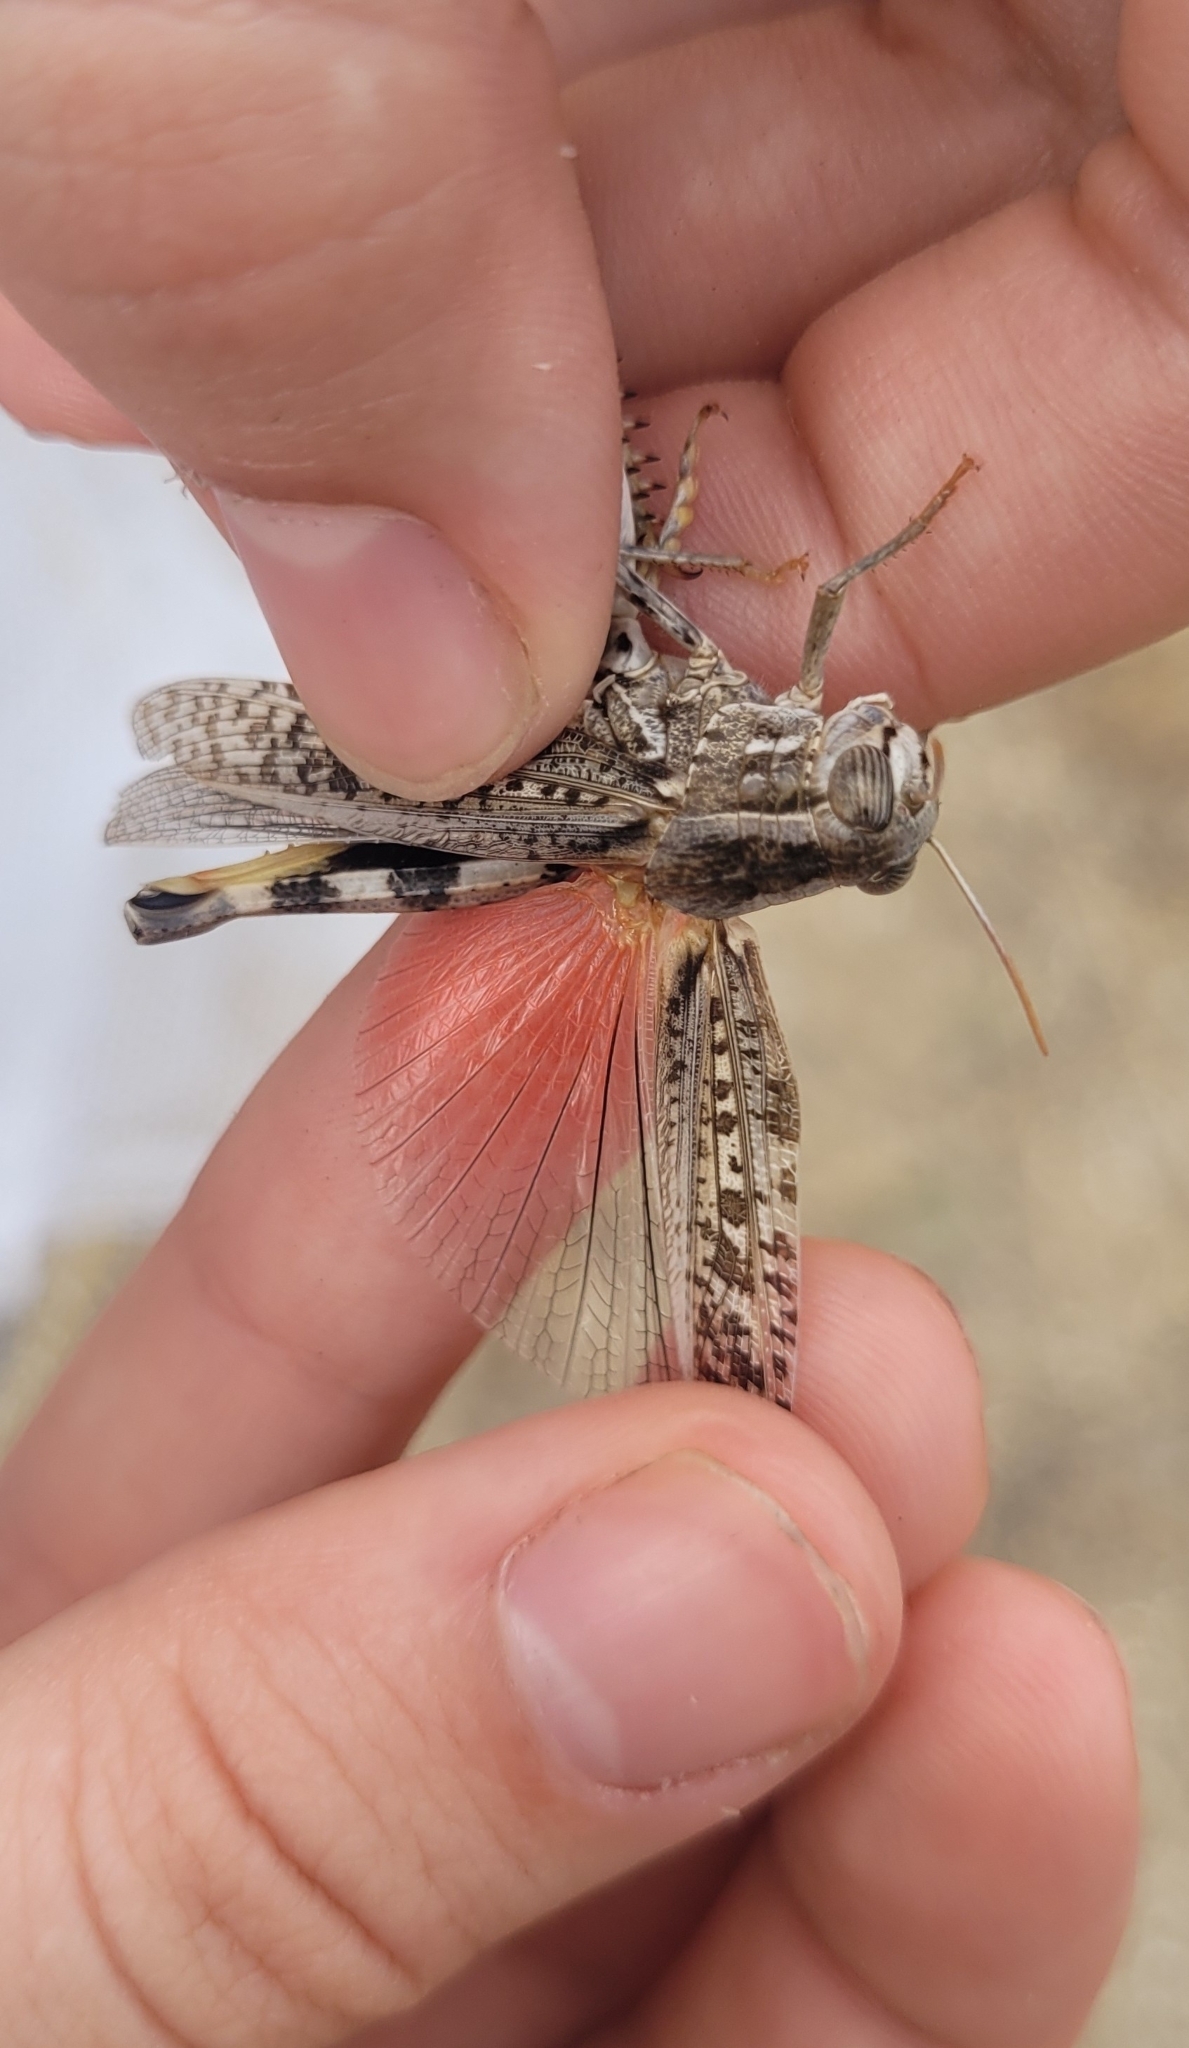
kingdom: Animalia
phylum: Arthropoda
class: Insecta
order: Orthoptera
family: Acrididae
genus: Calliptamus
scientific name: Calliptamus barbarus
